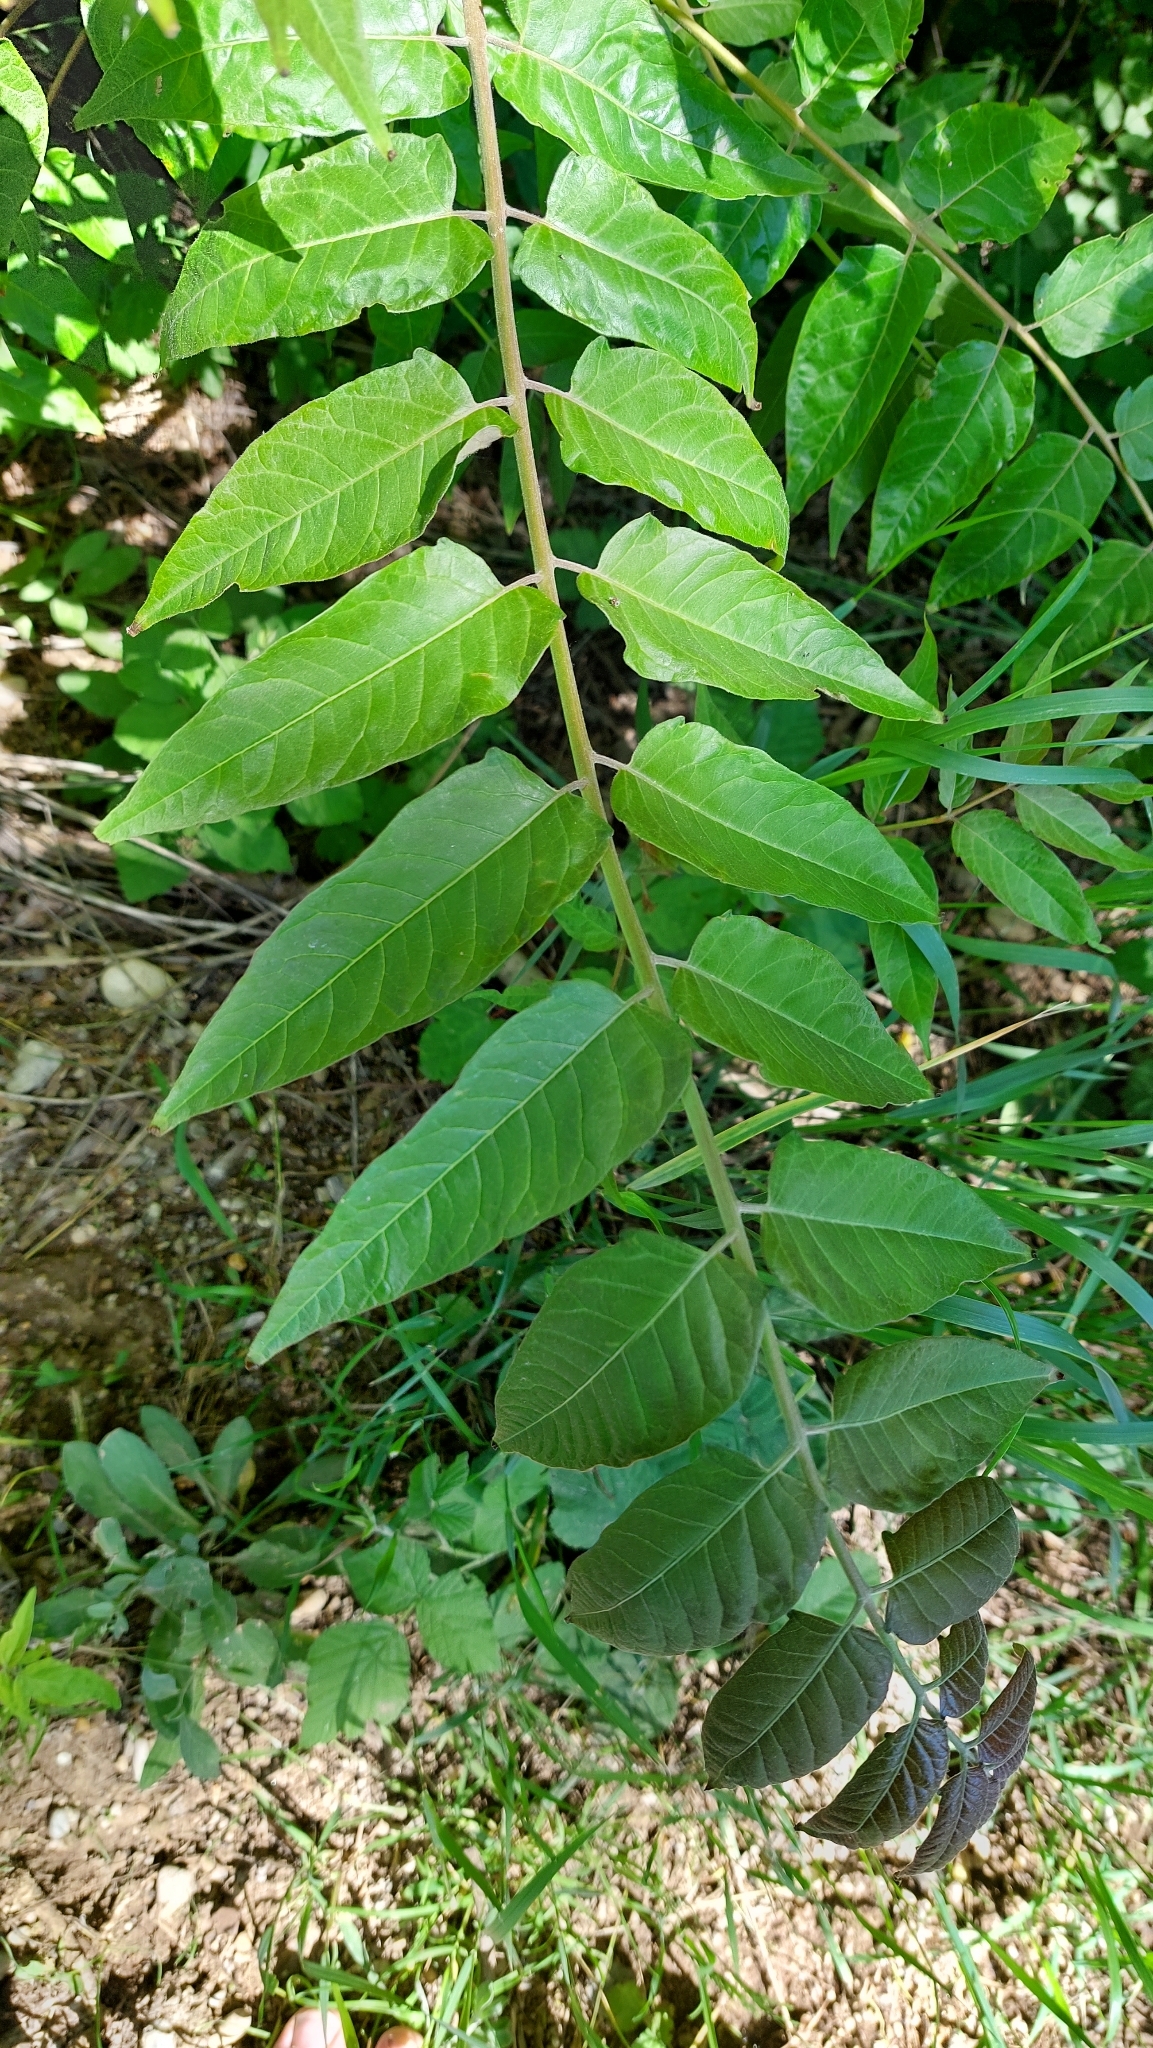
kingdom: Plantae
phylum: Tracheophyta
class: Magnoliopsida
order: Sapindales
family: Simaroubaceae
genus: Ailanthus
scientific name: Ailanthus altissima
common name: Tree-of-heaven
